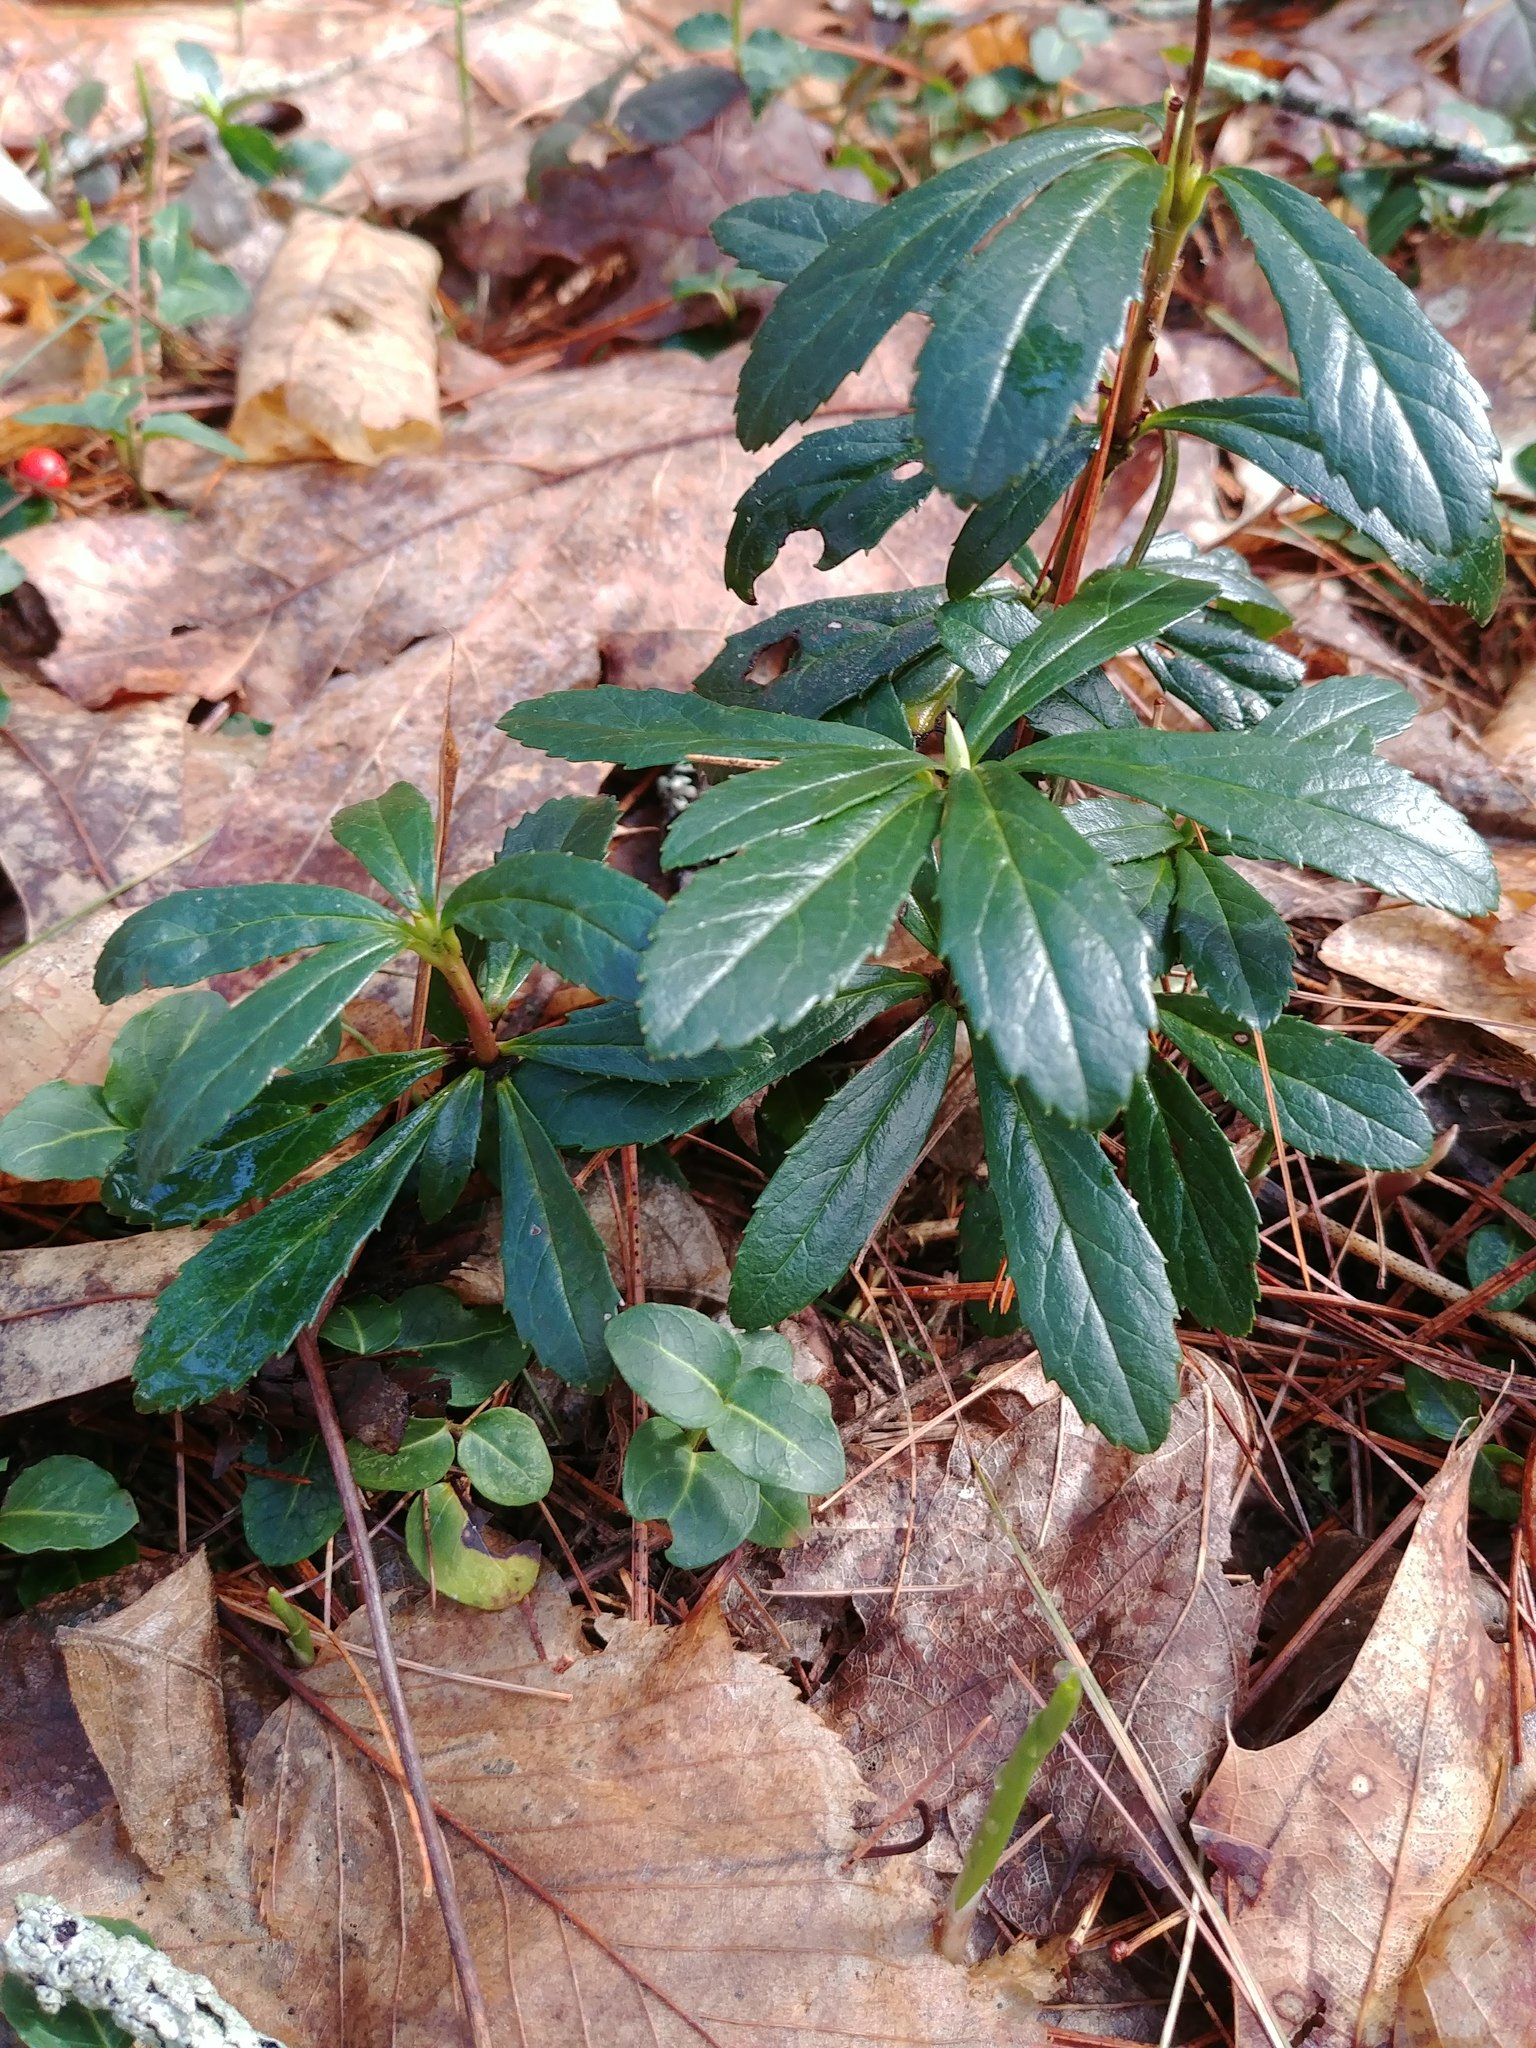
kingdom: Plantae
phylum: Tracheophyta
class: Magnoliopsida
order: Ericales
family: Ericaceae
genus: Chimaphila
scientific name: Chimaphila umbellata
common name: Pipsissewa
